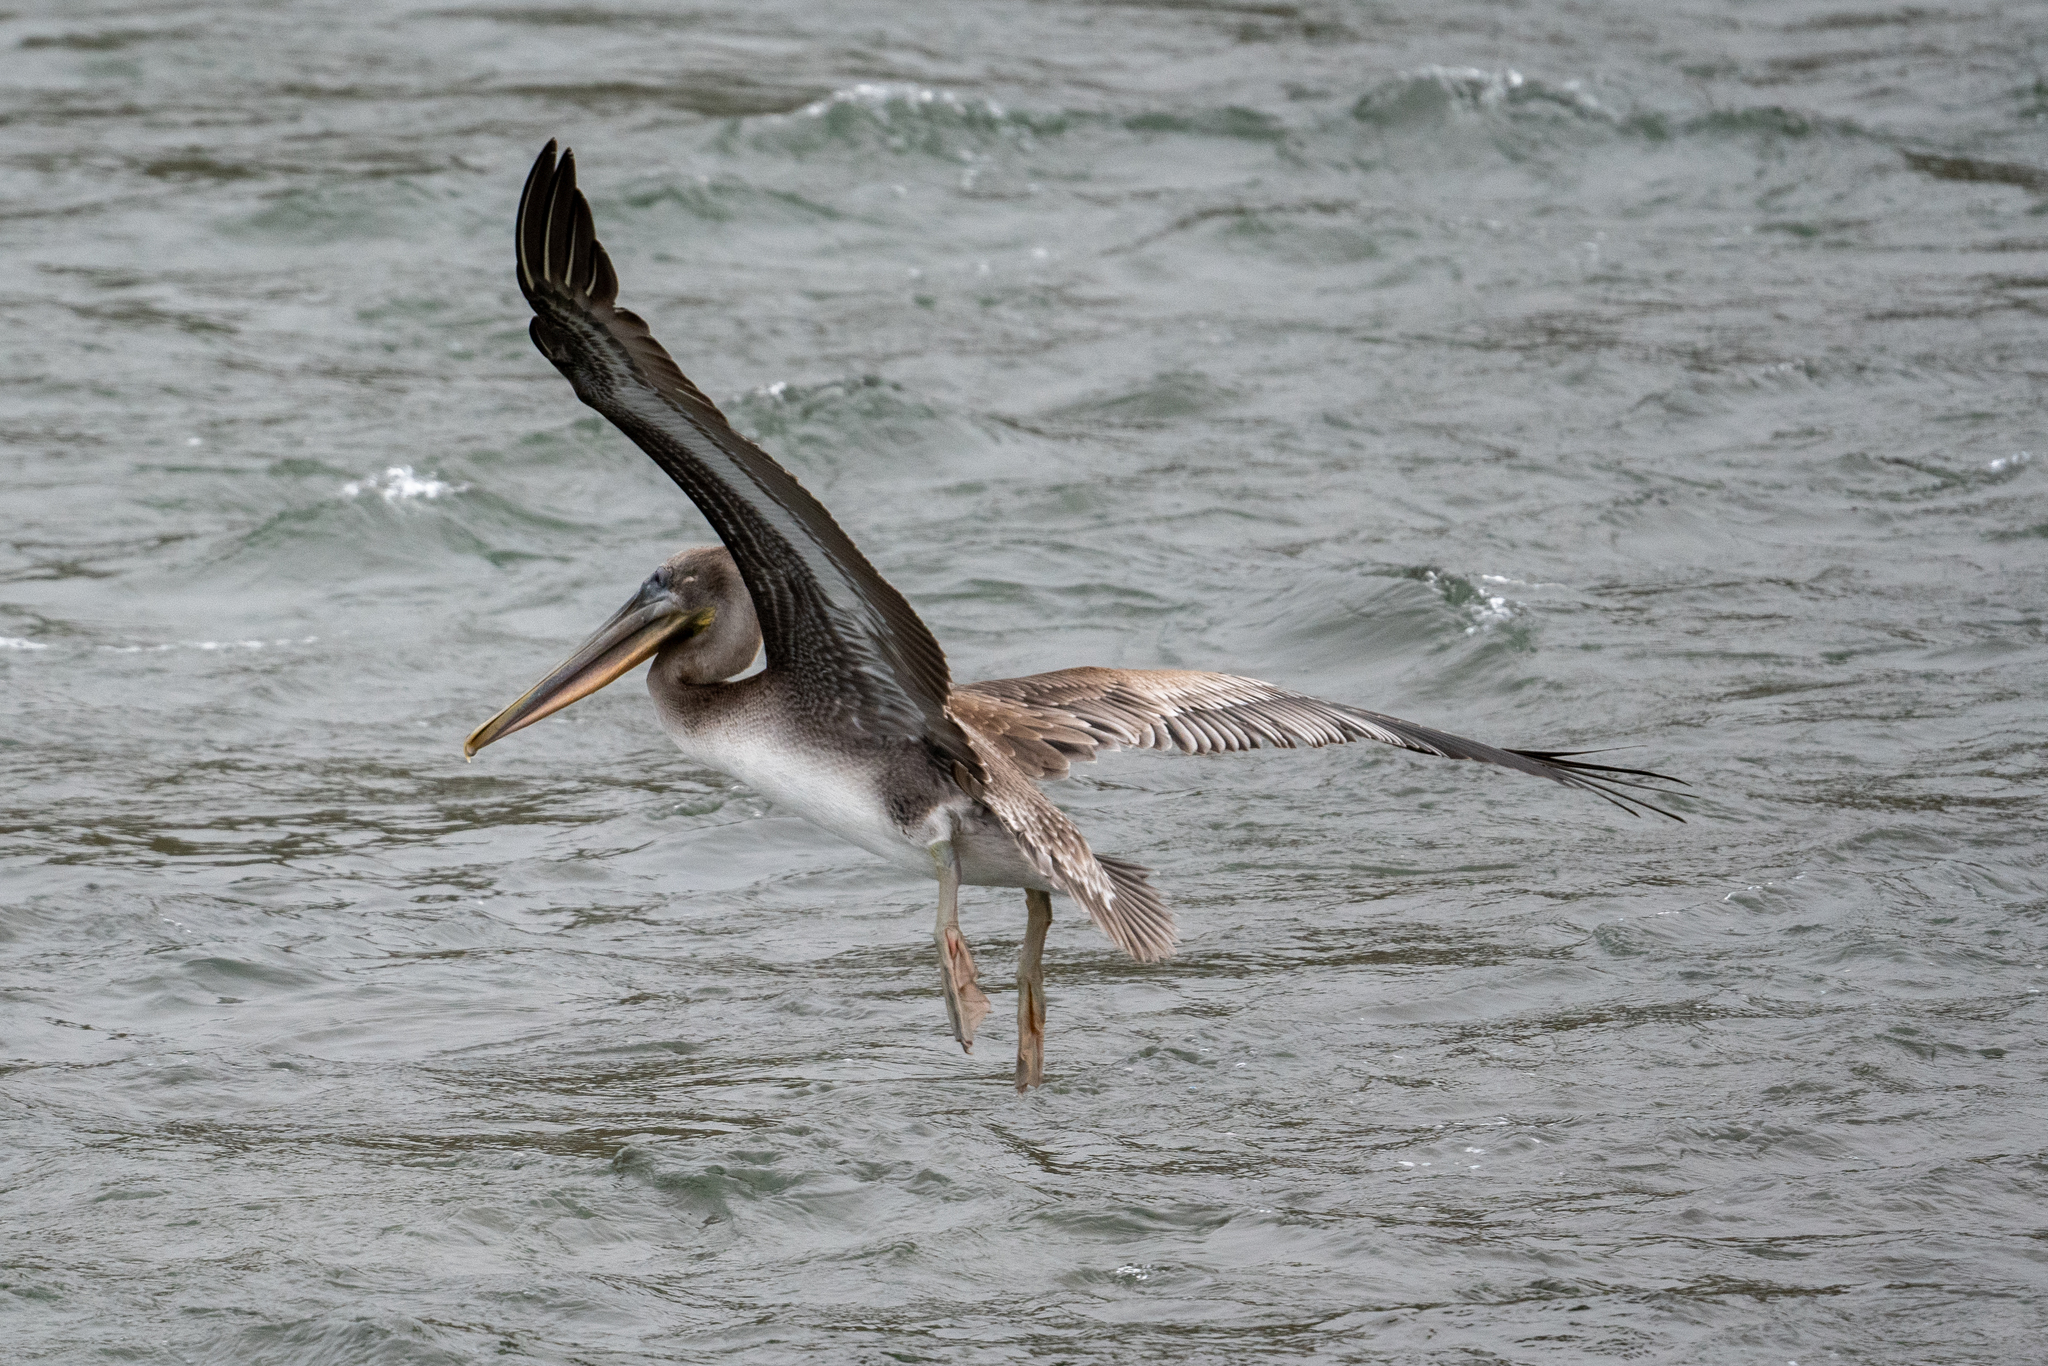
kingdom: Animalia
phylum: Chordata
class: Aves
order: Pelecaniformes
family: Pelecanidae
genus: Pelecanus
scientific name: Pelecanus occidentalis
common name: Brown pelican
